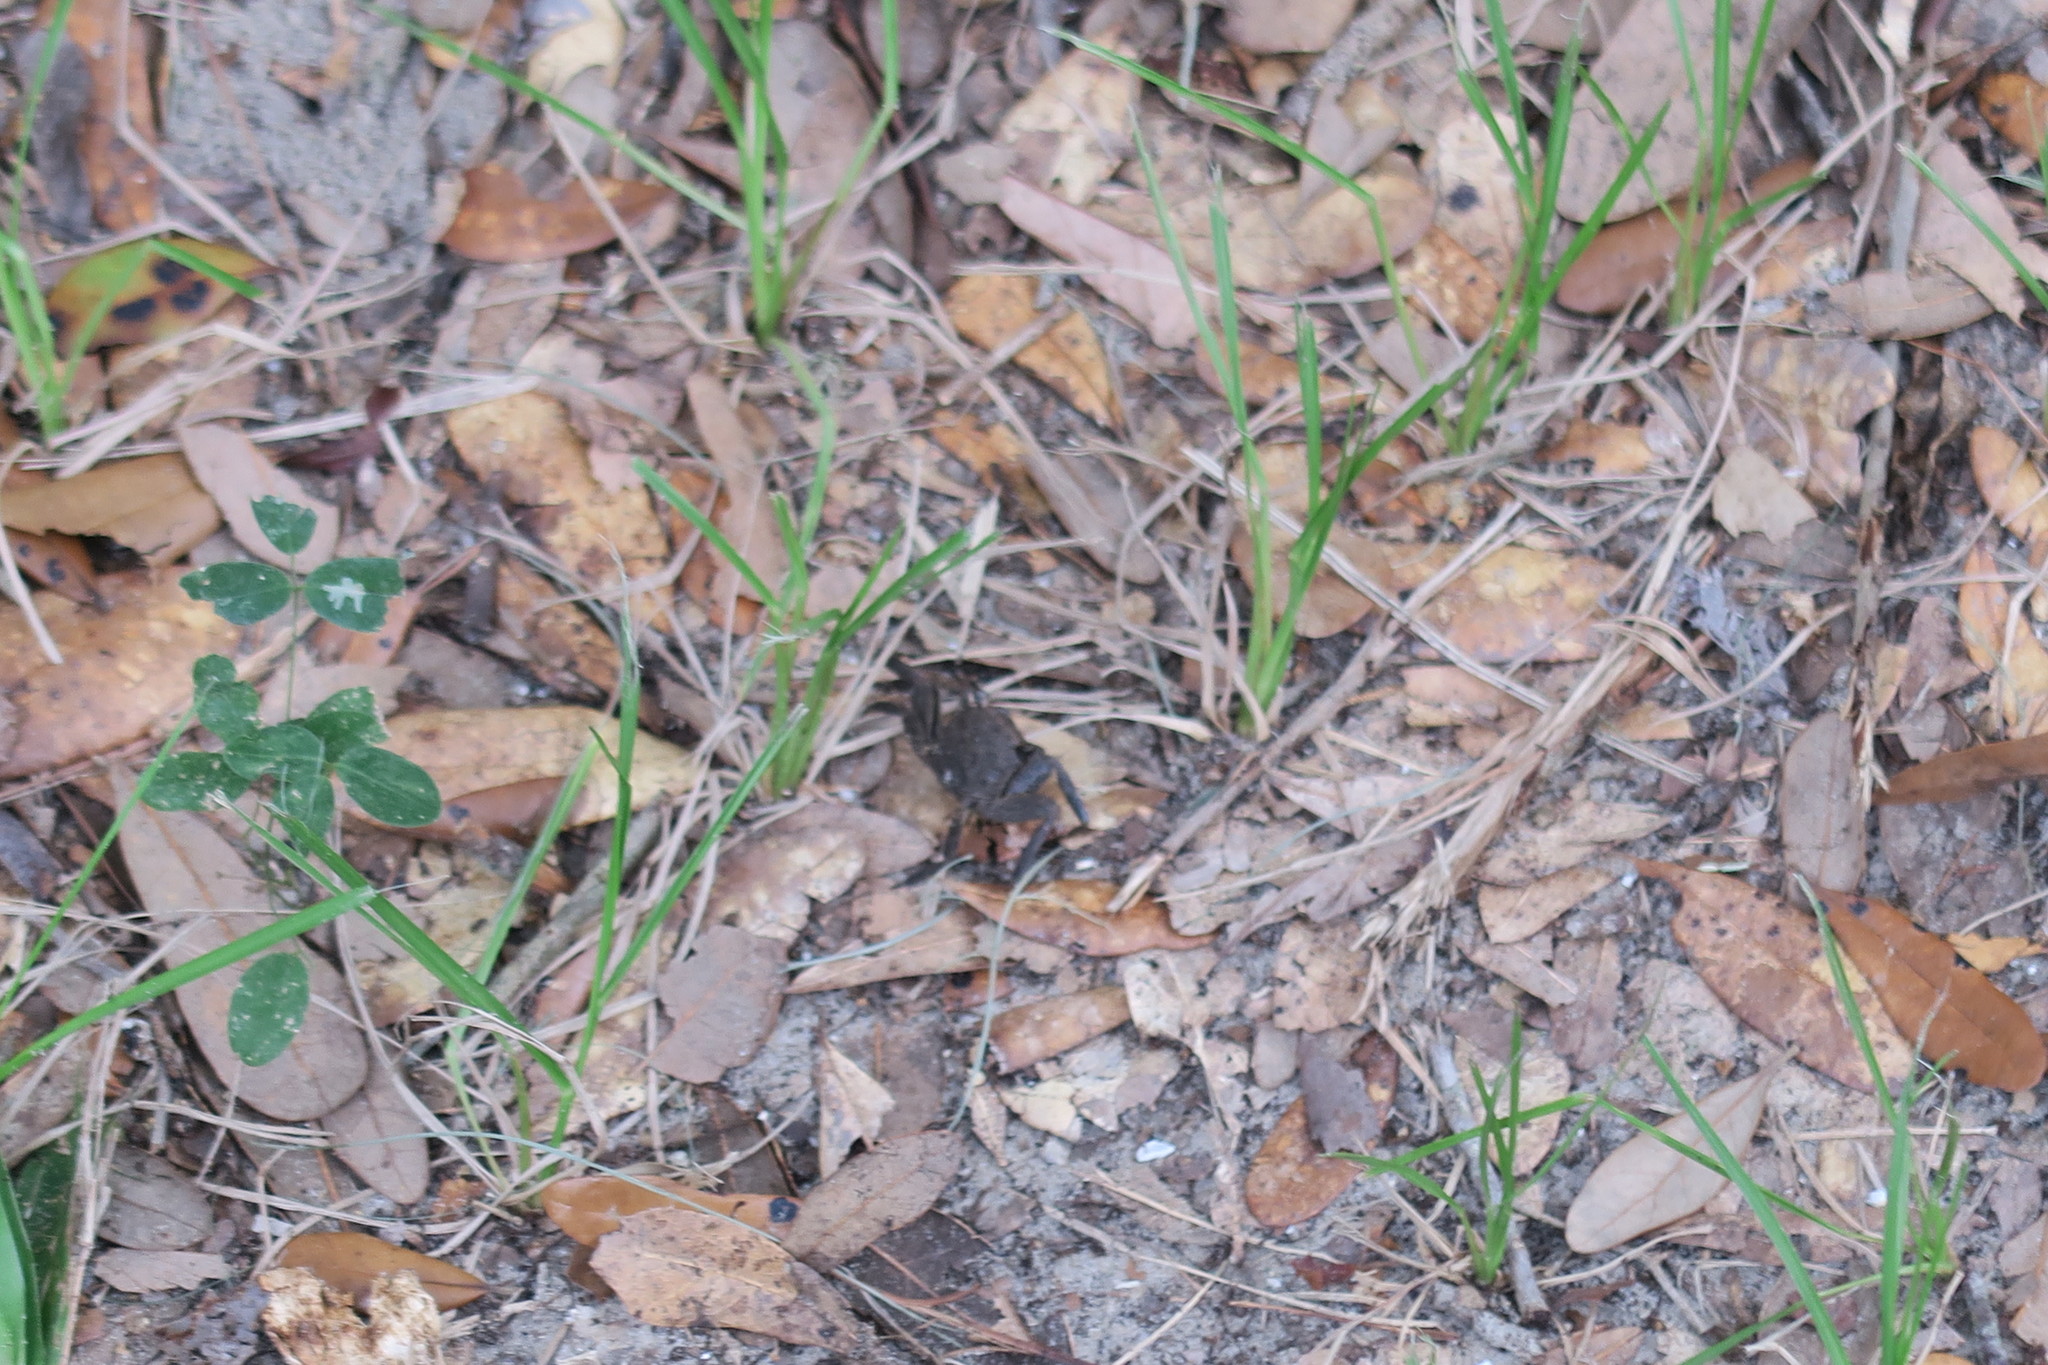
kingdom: Animalia
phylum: Arthropoda
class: Malacostraca
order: Decapoda
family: Sesarmidae
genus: Armases
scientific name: Armases cinereum
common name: Squareback marsh crab
